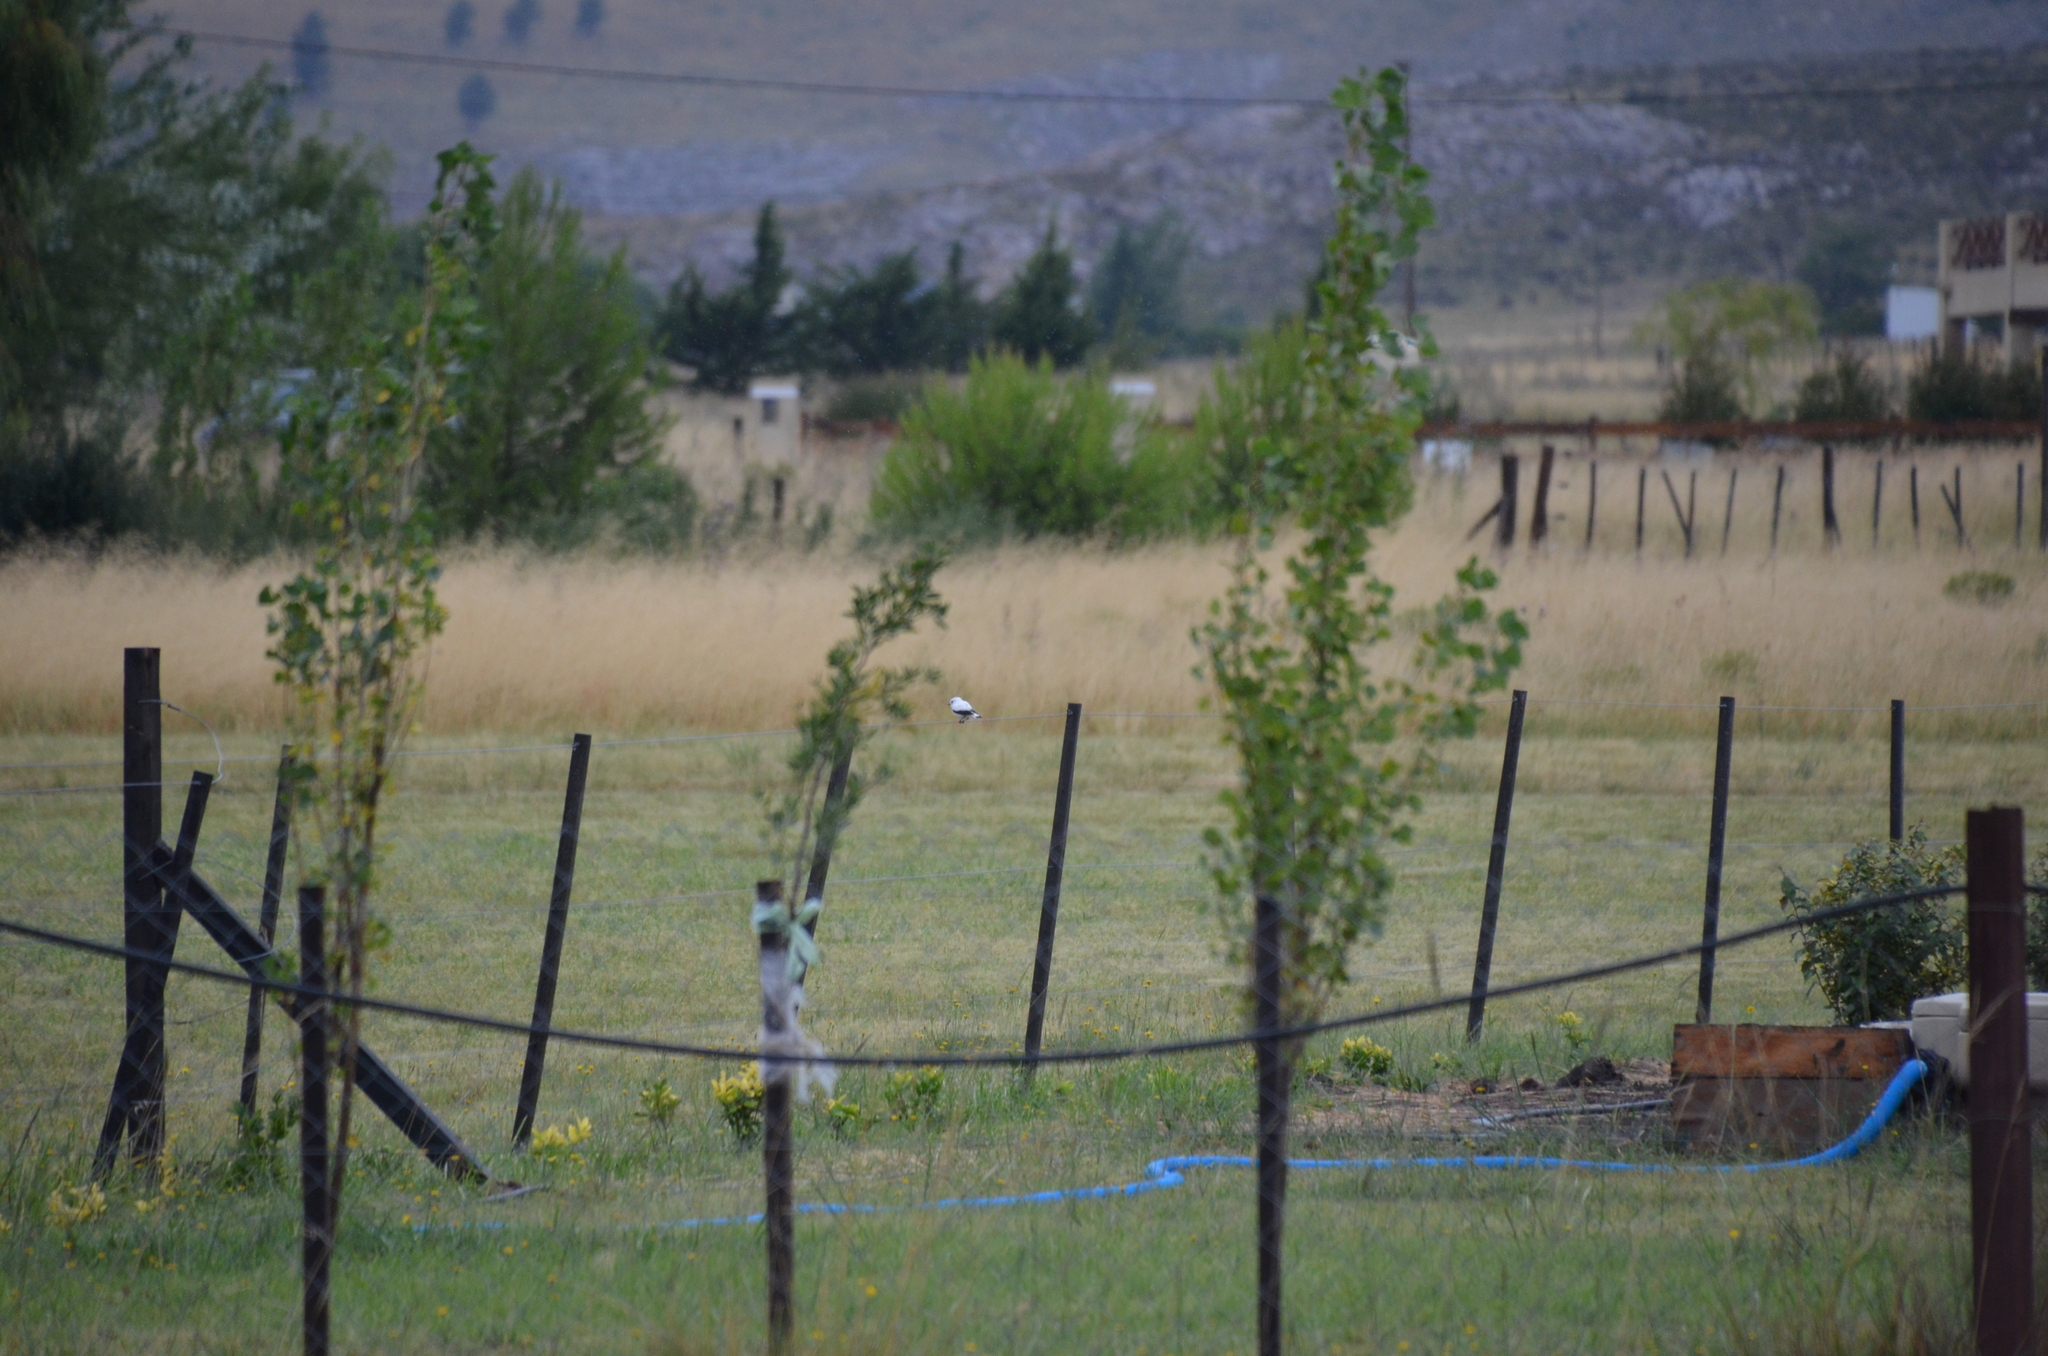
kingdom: Animalia
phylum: Chordata
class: Aves
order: Passeriformes
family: Tyrannidae
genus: Xolmis
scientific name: Xolmis irupero
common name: White monjita
